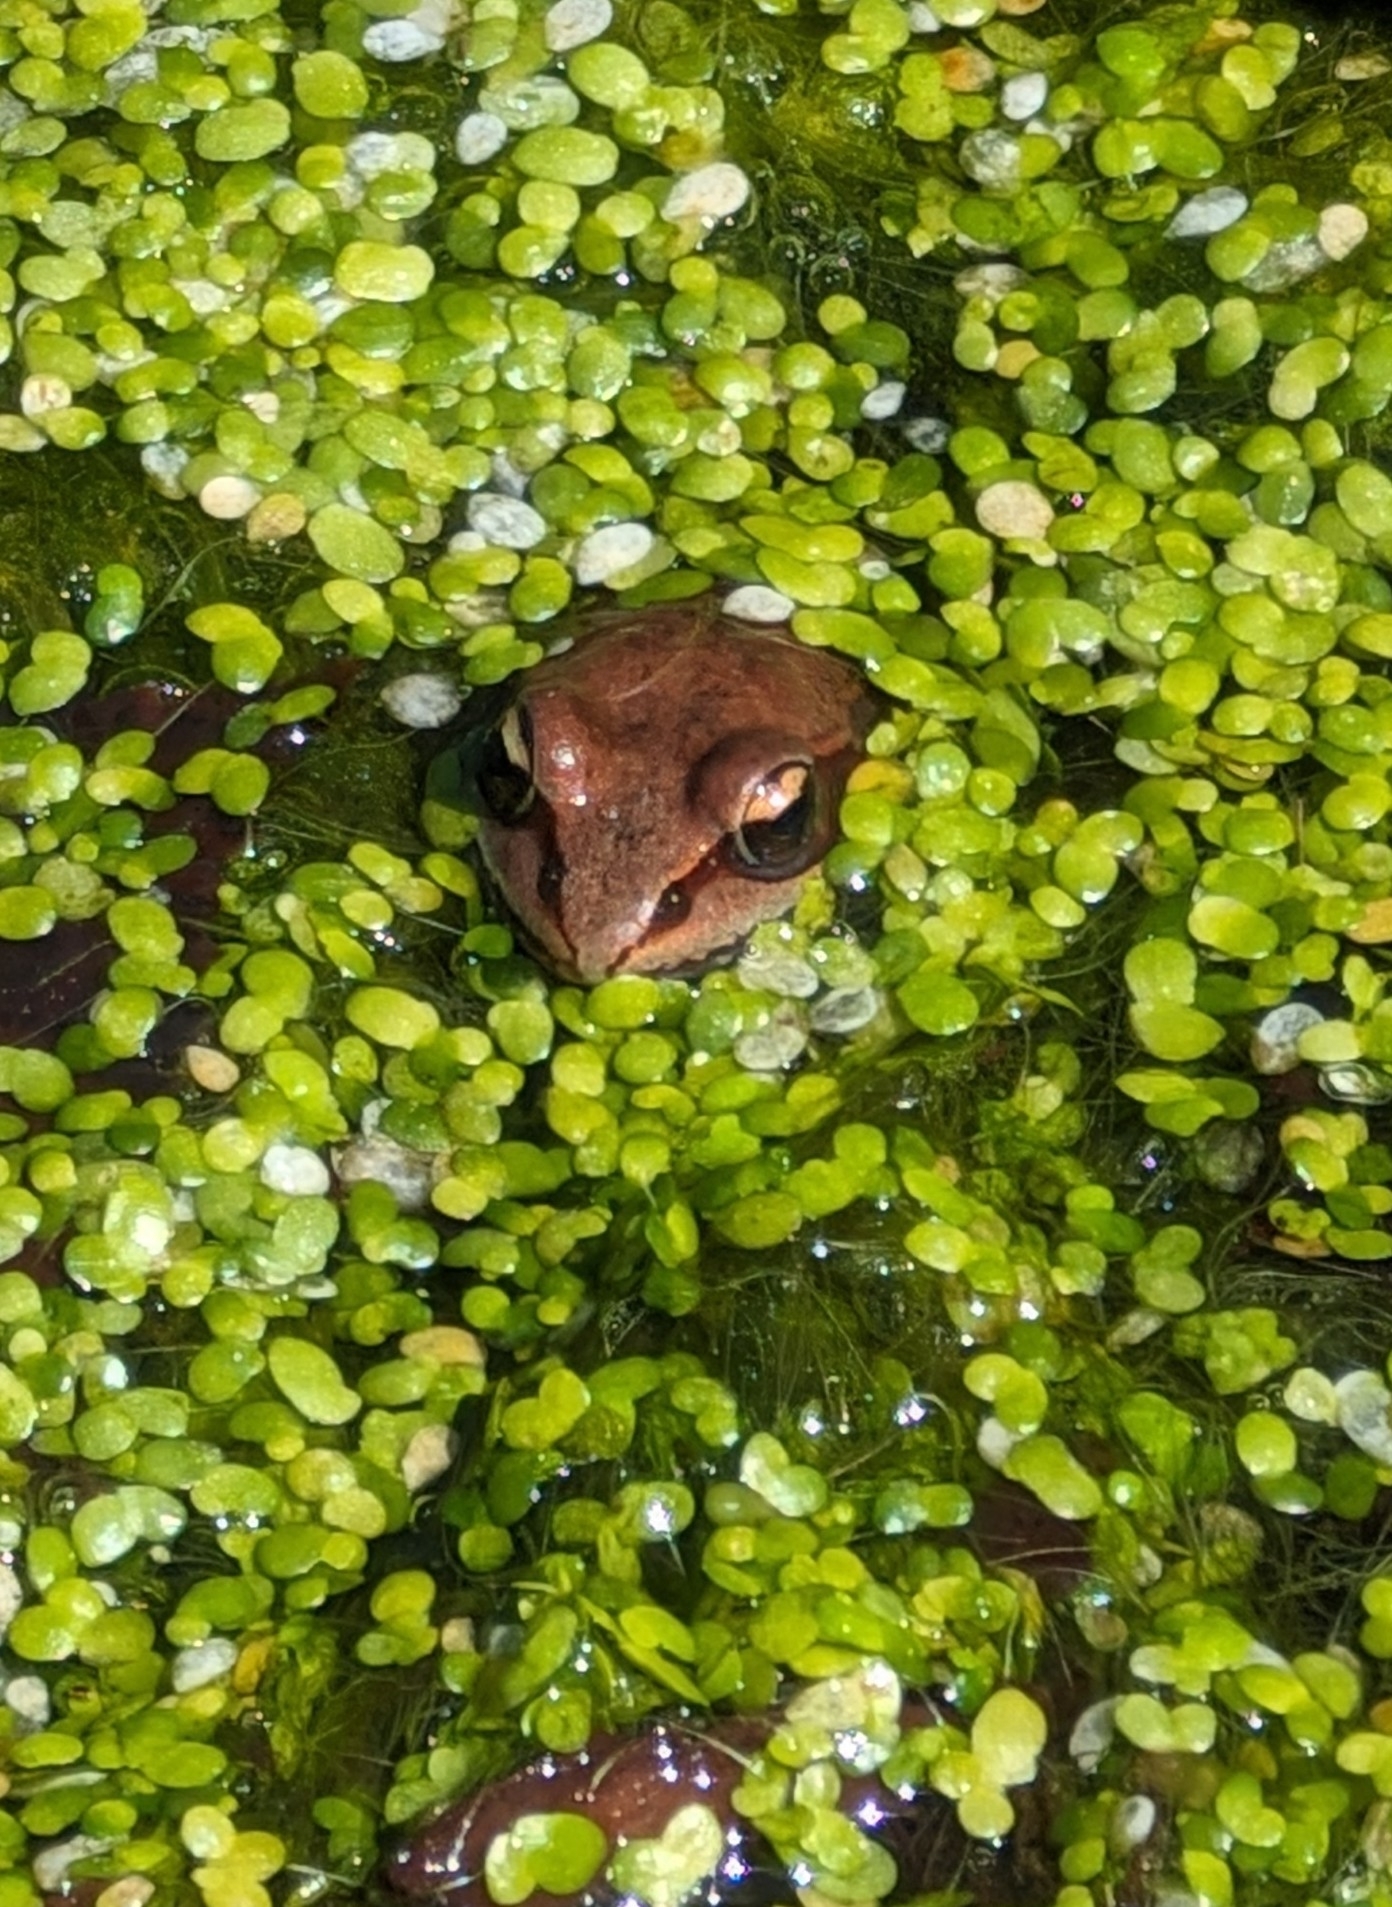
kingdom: Animalia
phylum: Chordata
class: Amphibia
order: Anura
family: Ranidae
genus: Lithobates
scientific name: Lithobates sylvaticus
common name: Wood frog
